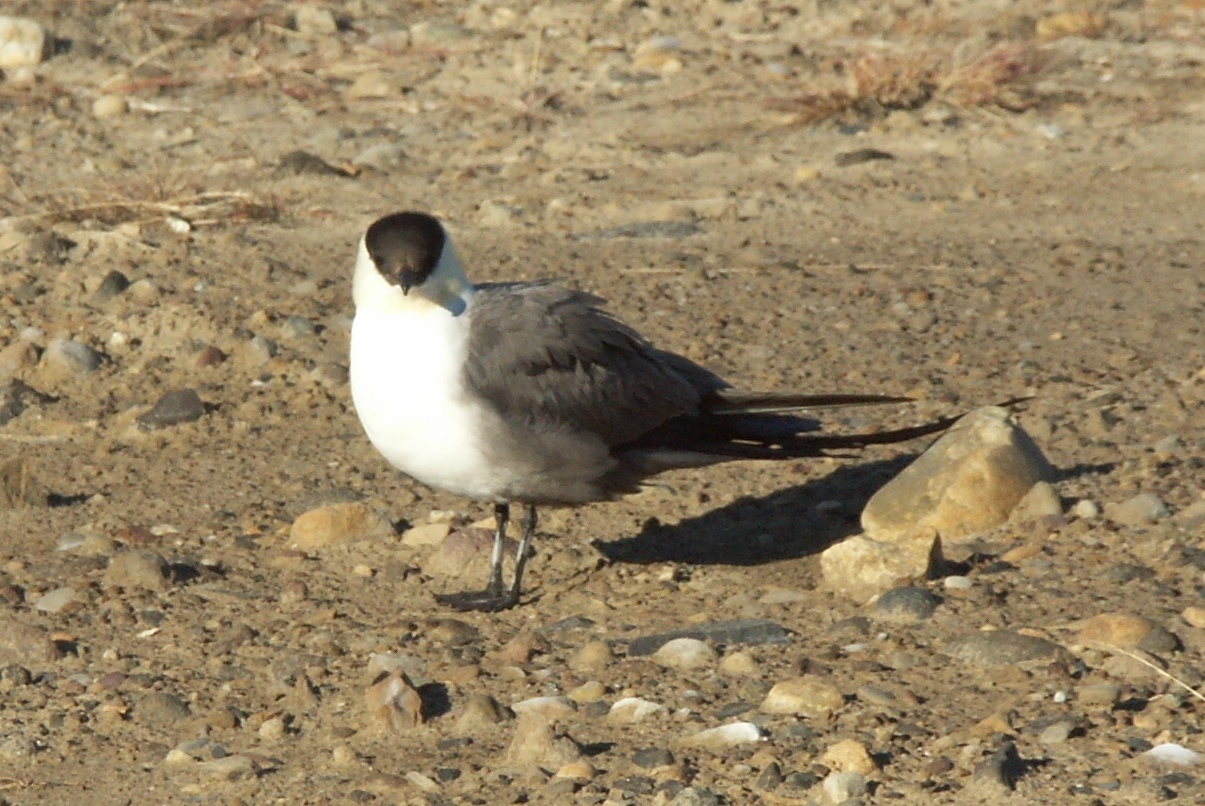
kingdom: Animalia
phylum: Chordata
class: Aves
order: Charadriiformes
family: Stercorariidae
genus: Stercorarius
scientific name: Stercorarius longicaudus
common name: Long-tailed jaeger
